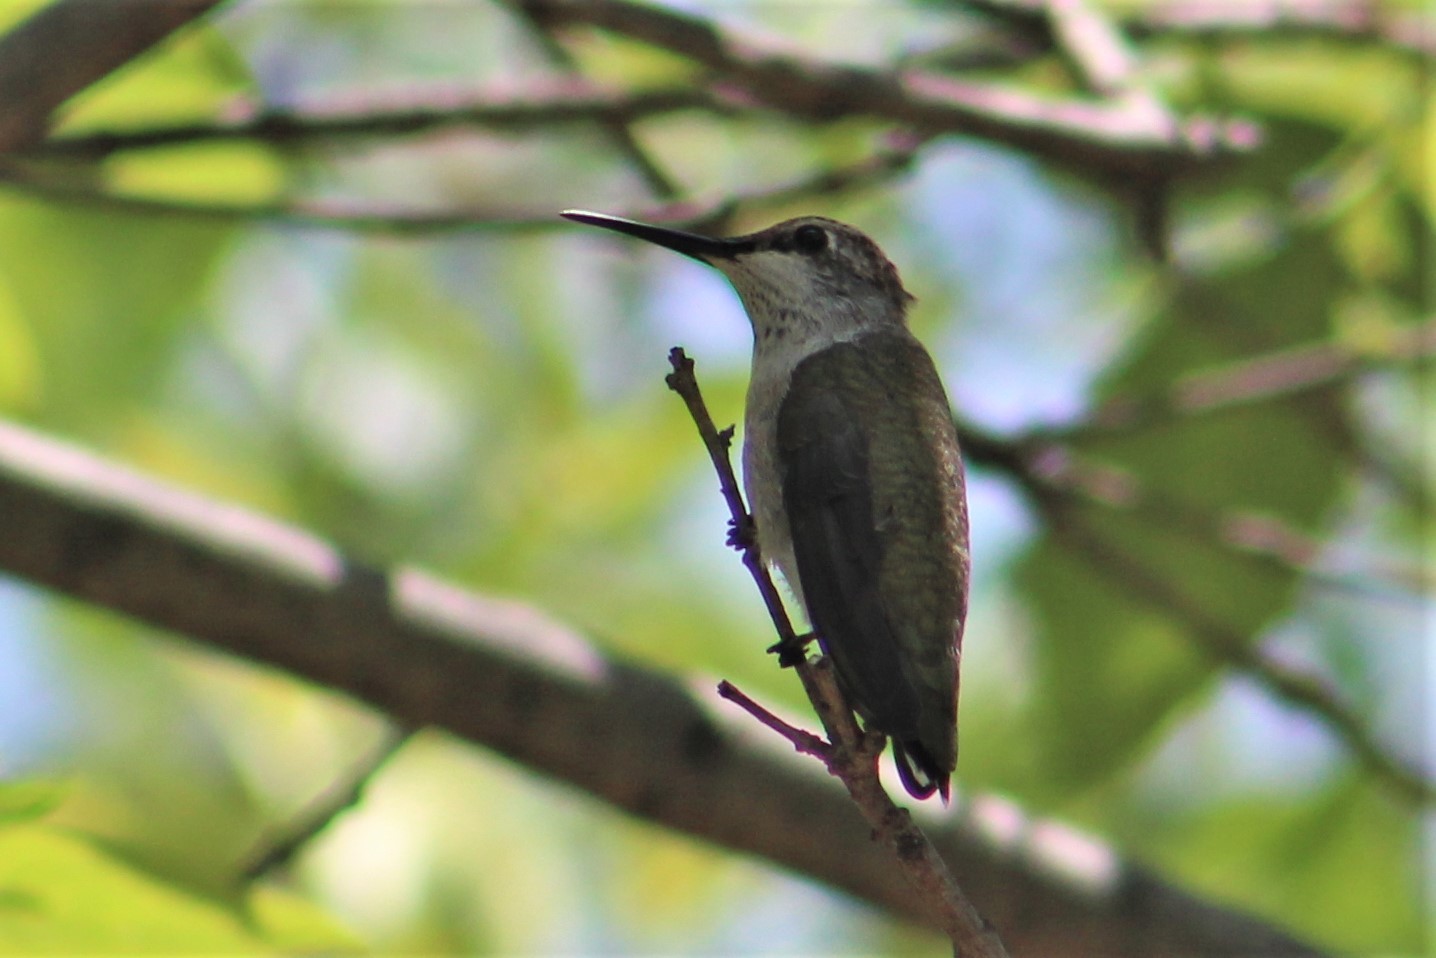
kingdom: Animalia
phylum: Chordata
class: Aves
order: Apodiformes
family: Trochilidae
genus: Archilochus
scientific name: Archilochus colubris
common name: Ruby-throated hummingbird
